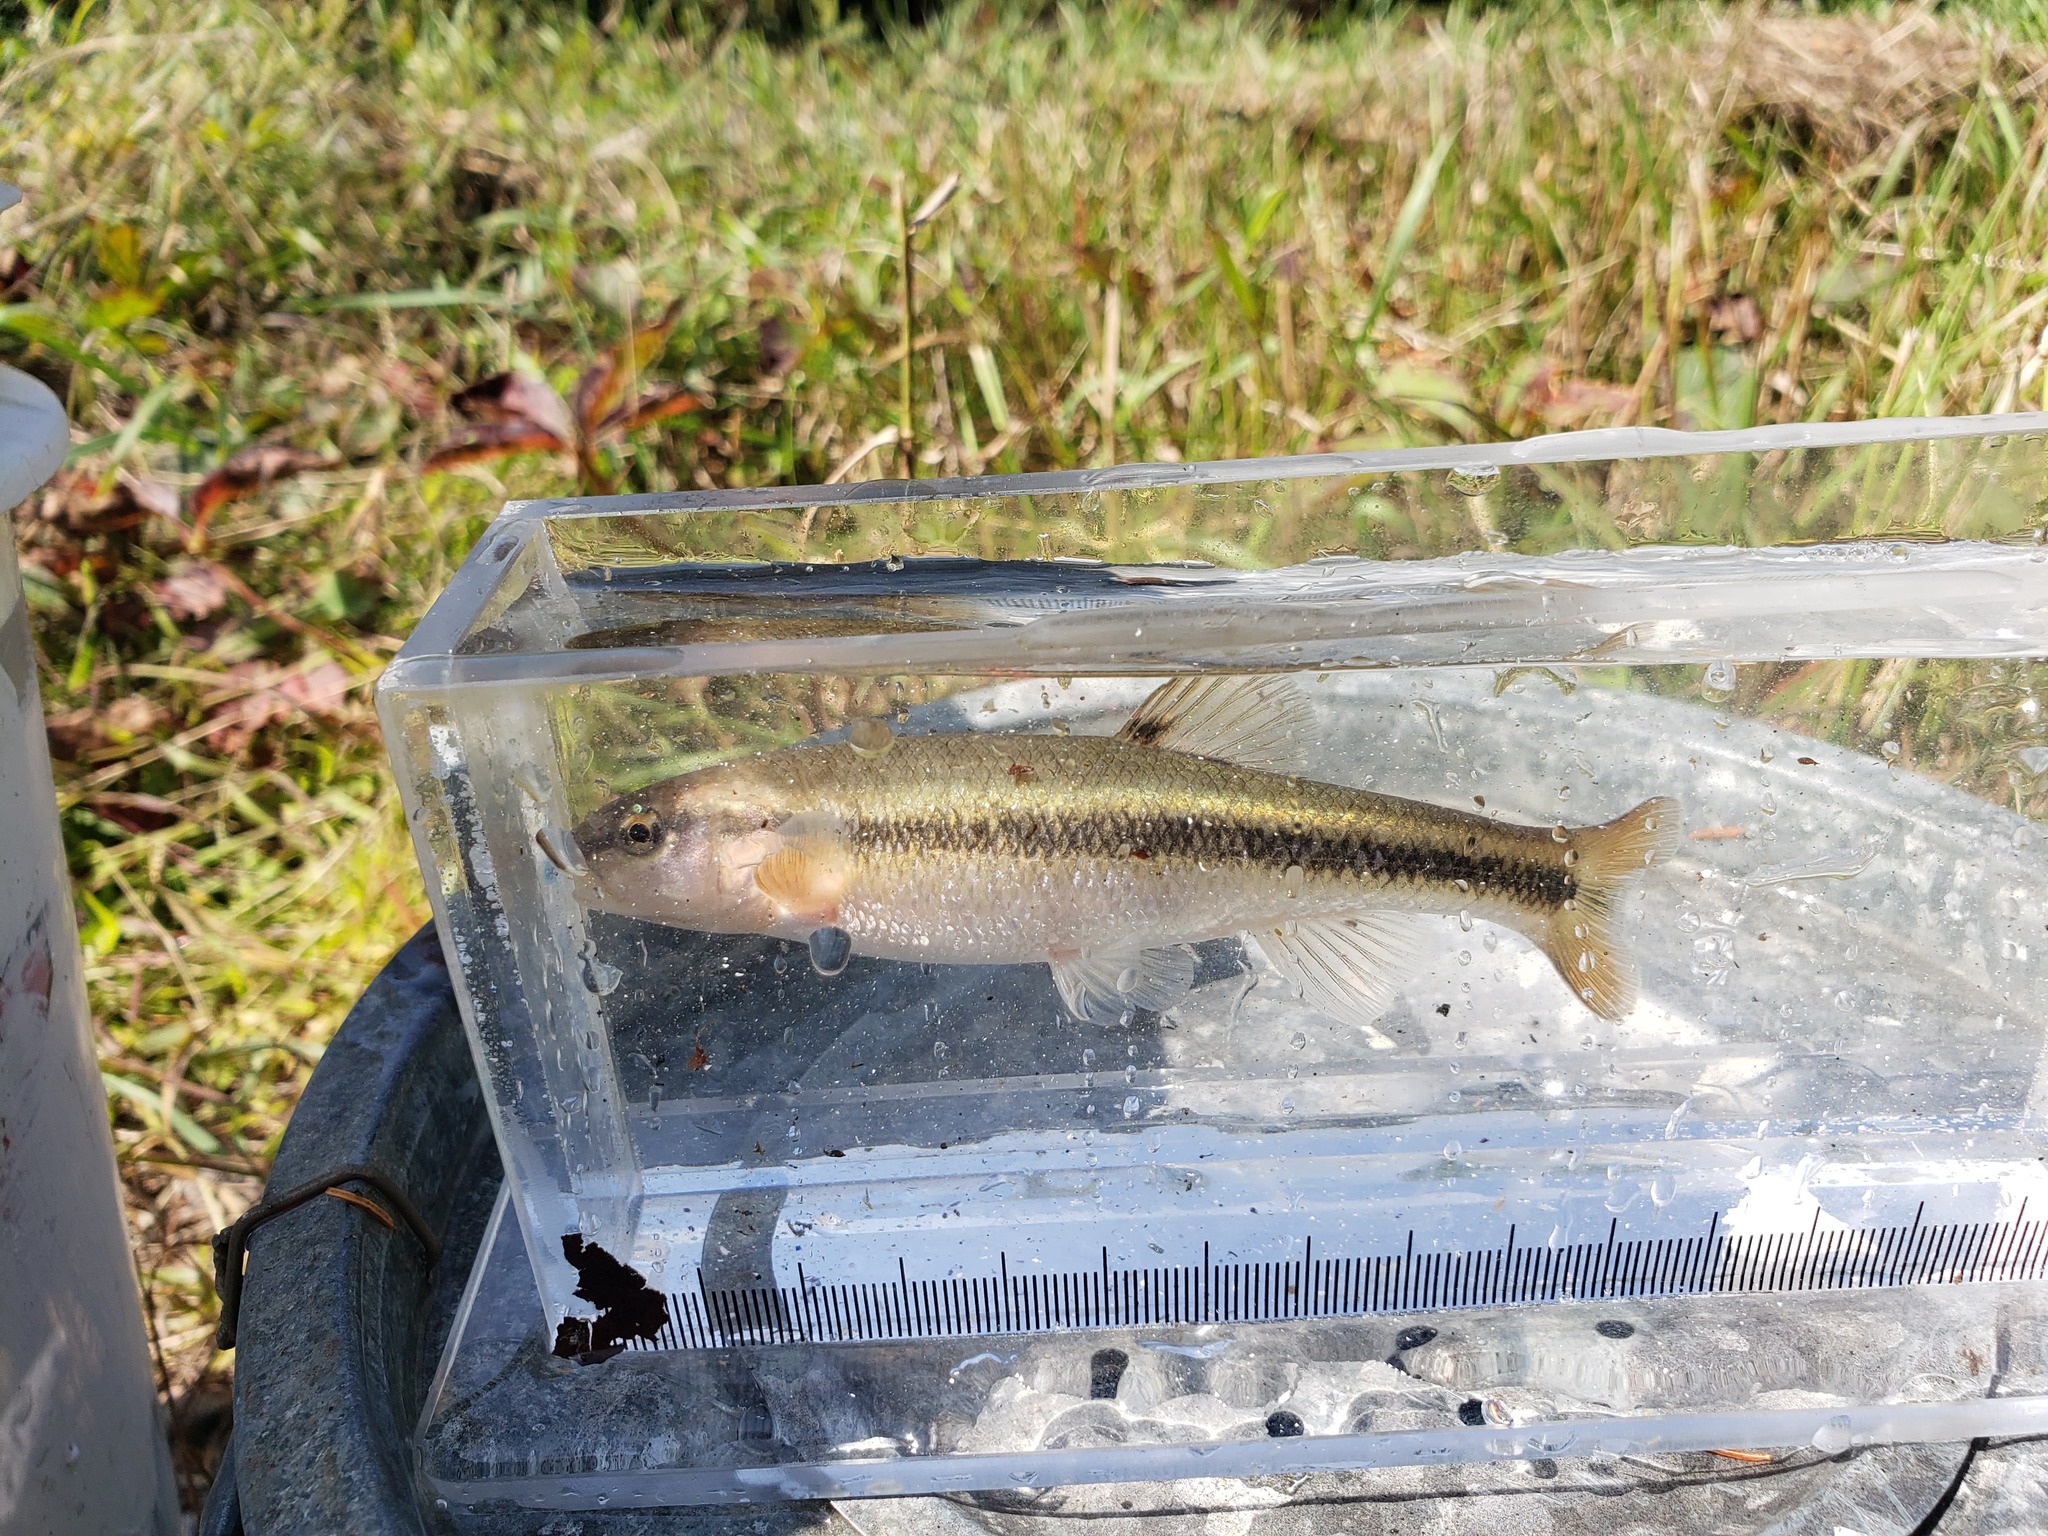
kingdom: Animalia
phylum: Chordata
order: Cypriniformes
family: Cyprinidae
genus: Semotilus
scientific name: Semotilus atromaculatus
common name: Creek chub
